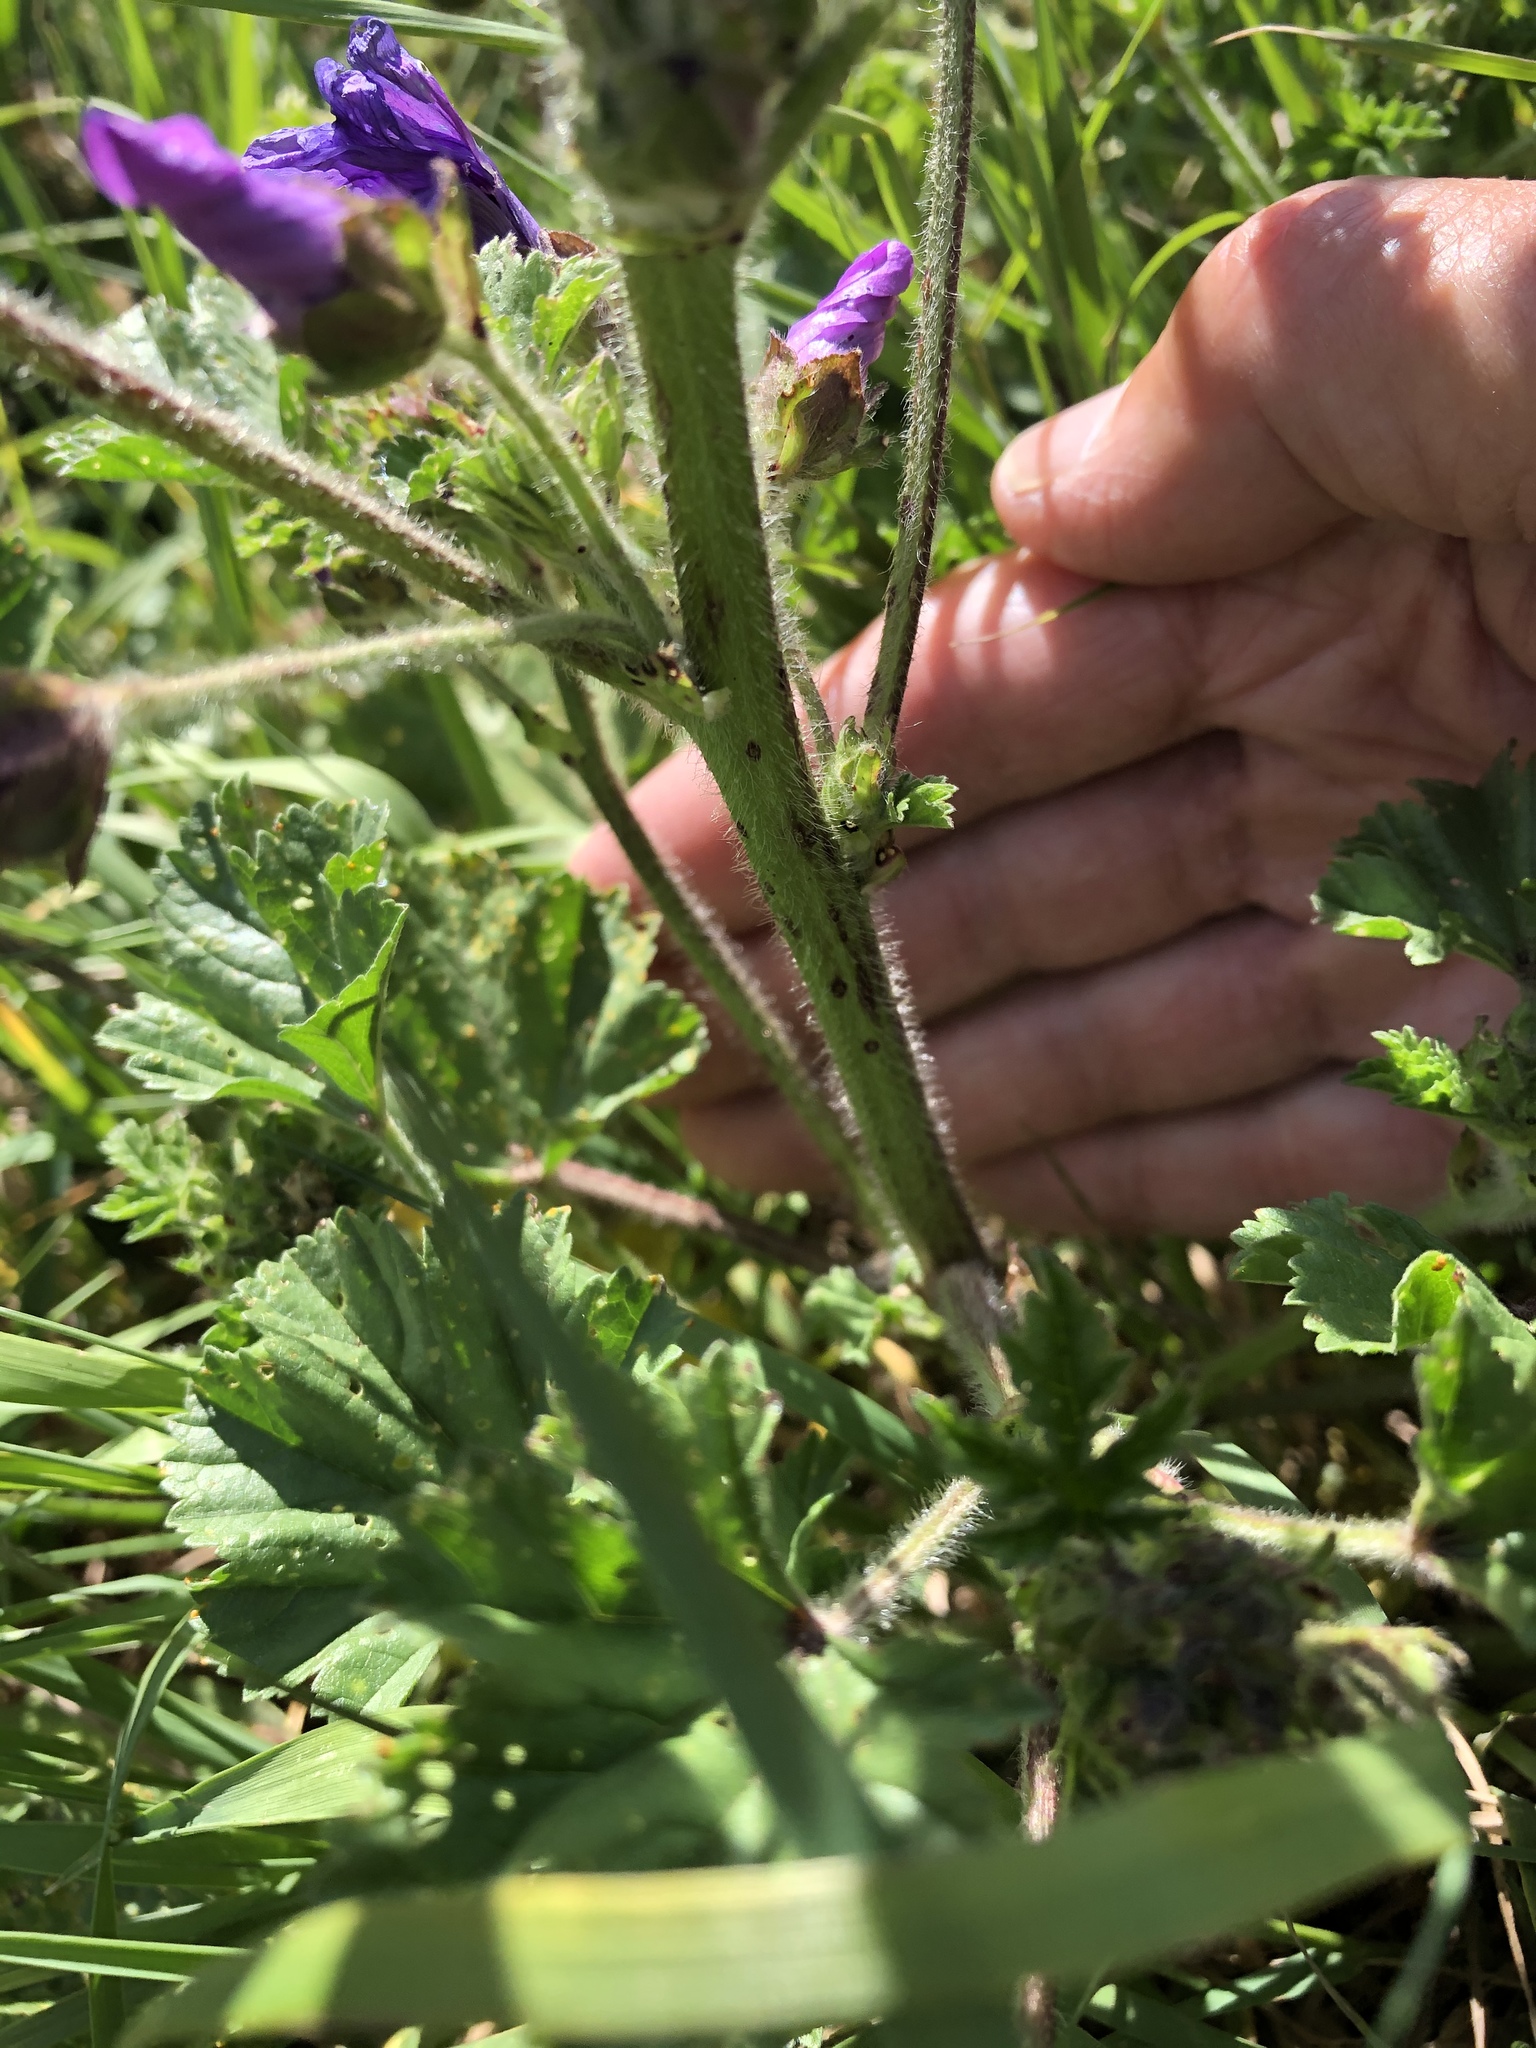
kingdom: Plantae
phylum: Tracheophyta
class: Magnoliopsida
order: Malvales
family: Malvaceae
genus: Malva
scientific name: Malva sylvestris
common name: Common mallow
